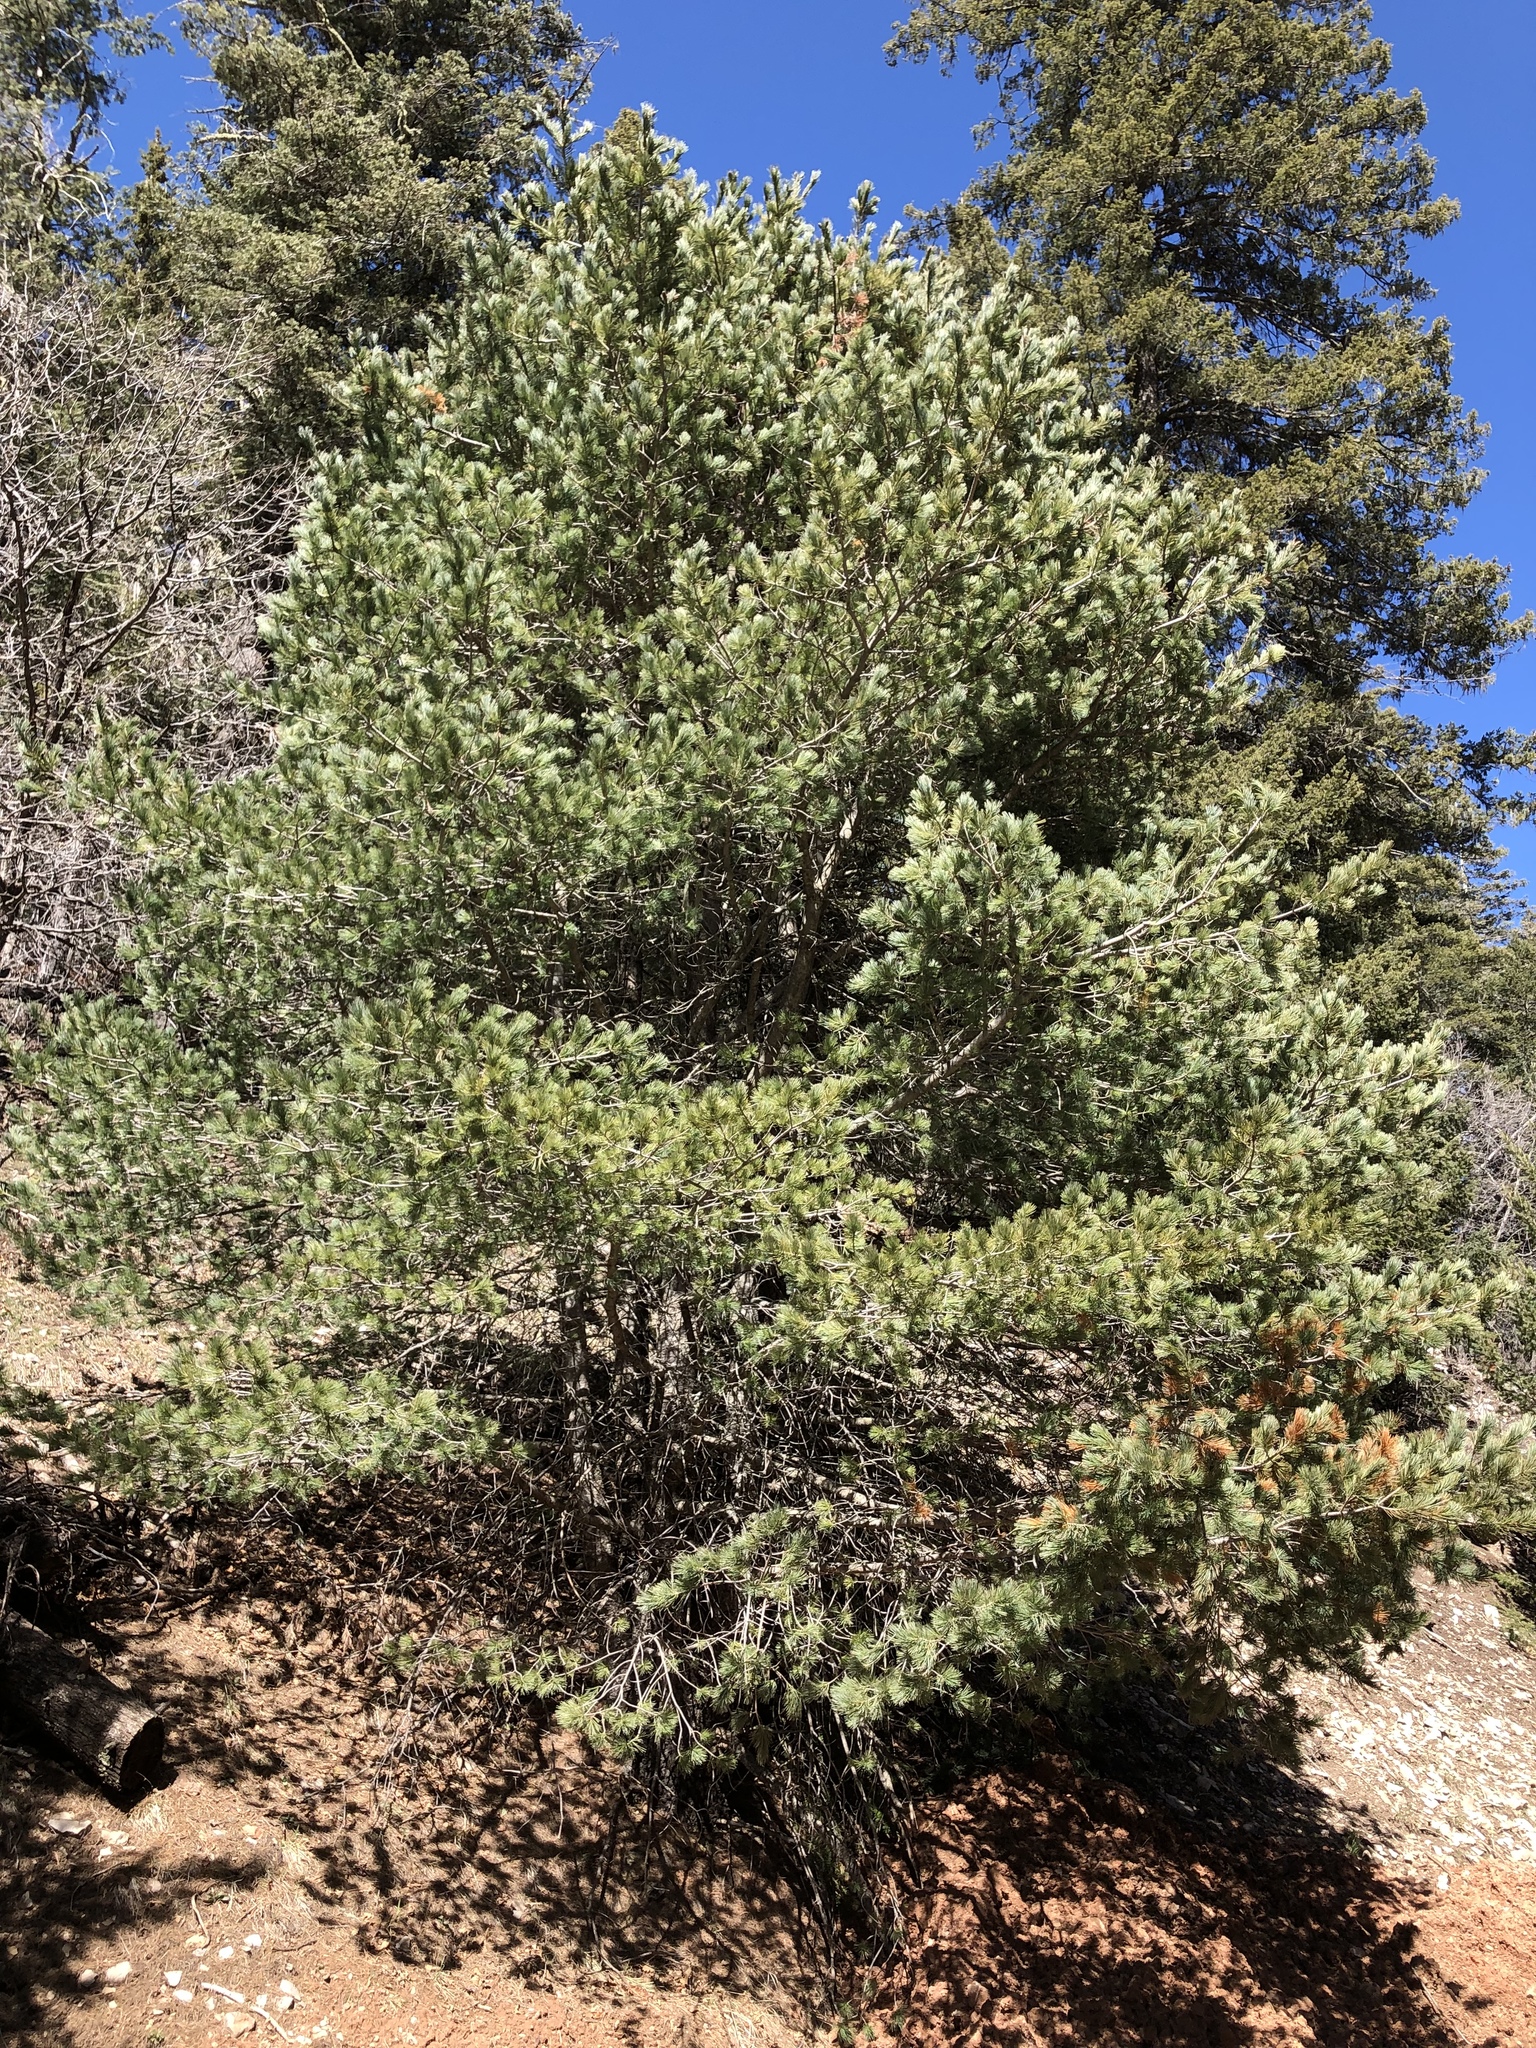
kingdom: Plantae
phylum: Tracheophyta
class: Pinopsida
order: Pinales
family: Pinaceae
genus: Pinus
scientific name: Pinus strobiformis
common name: Southwestern white pine
